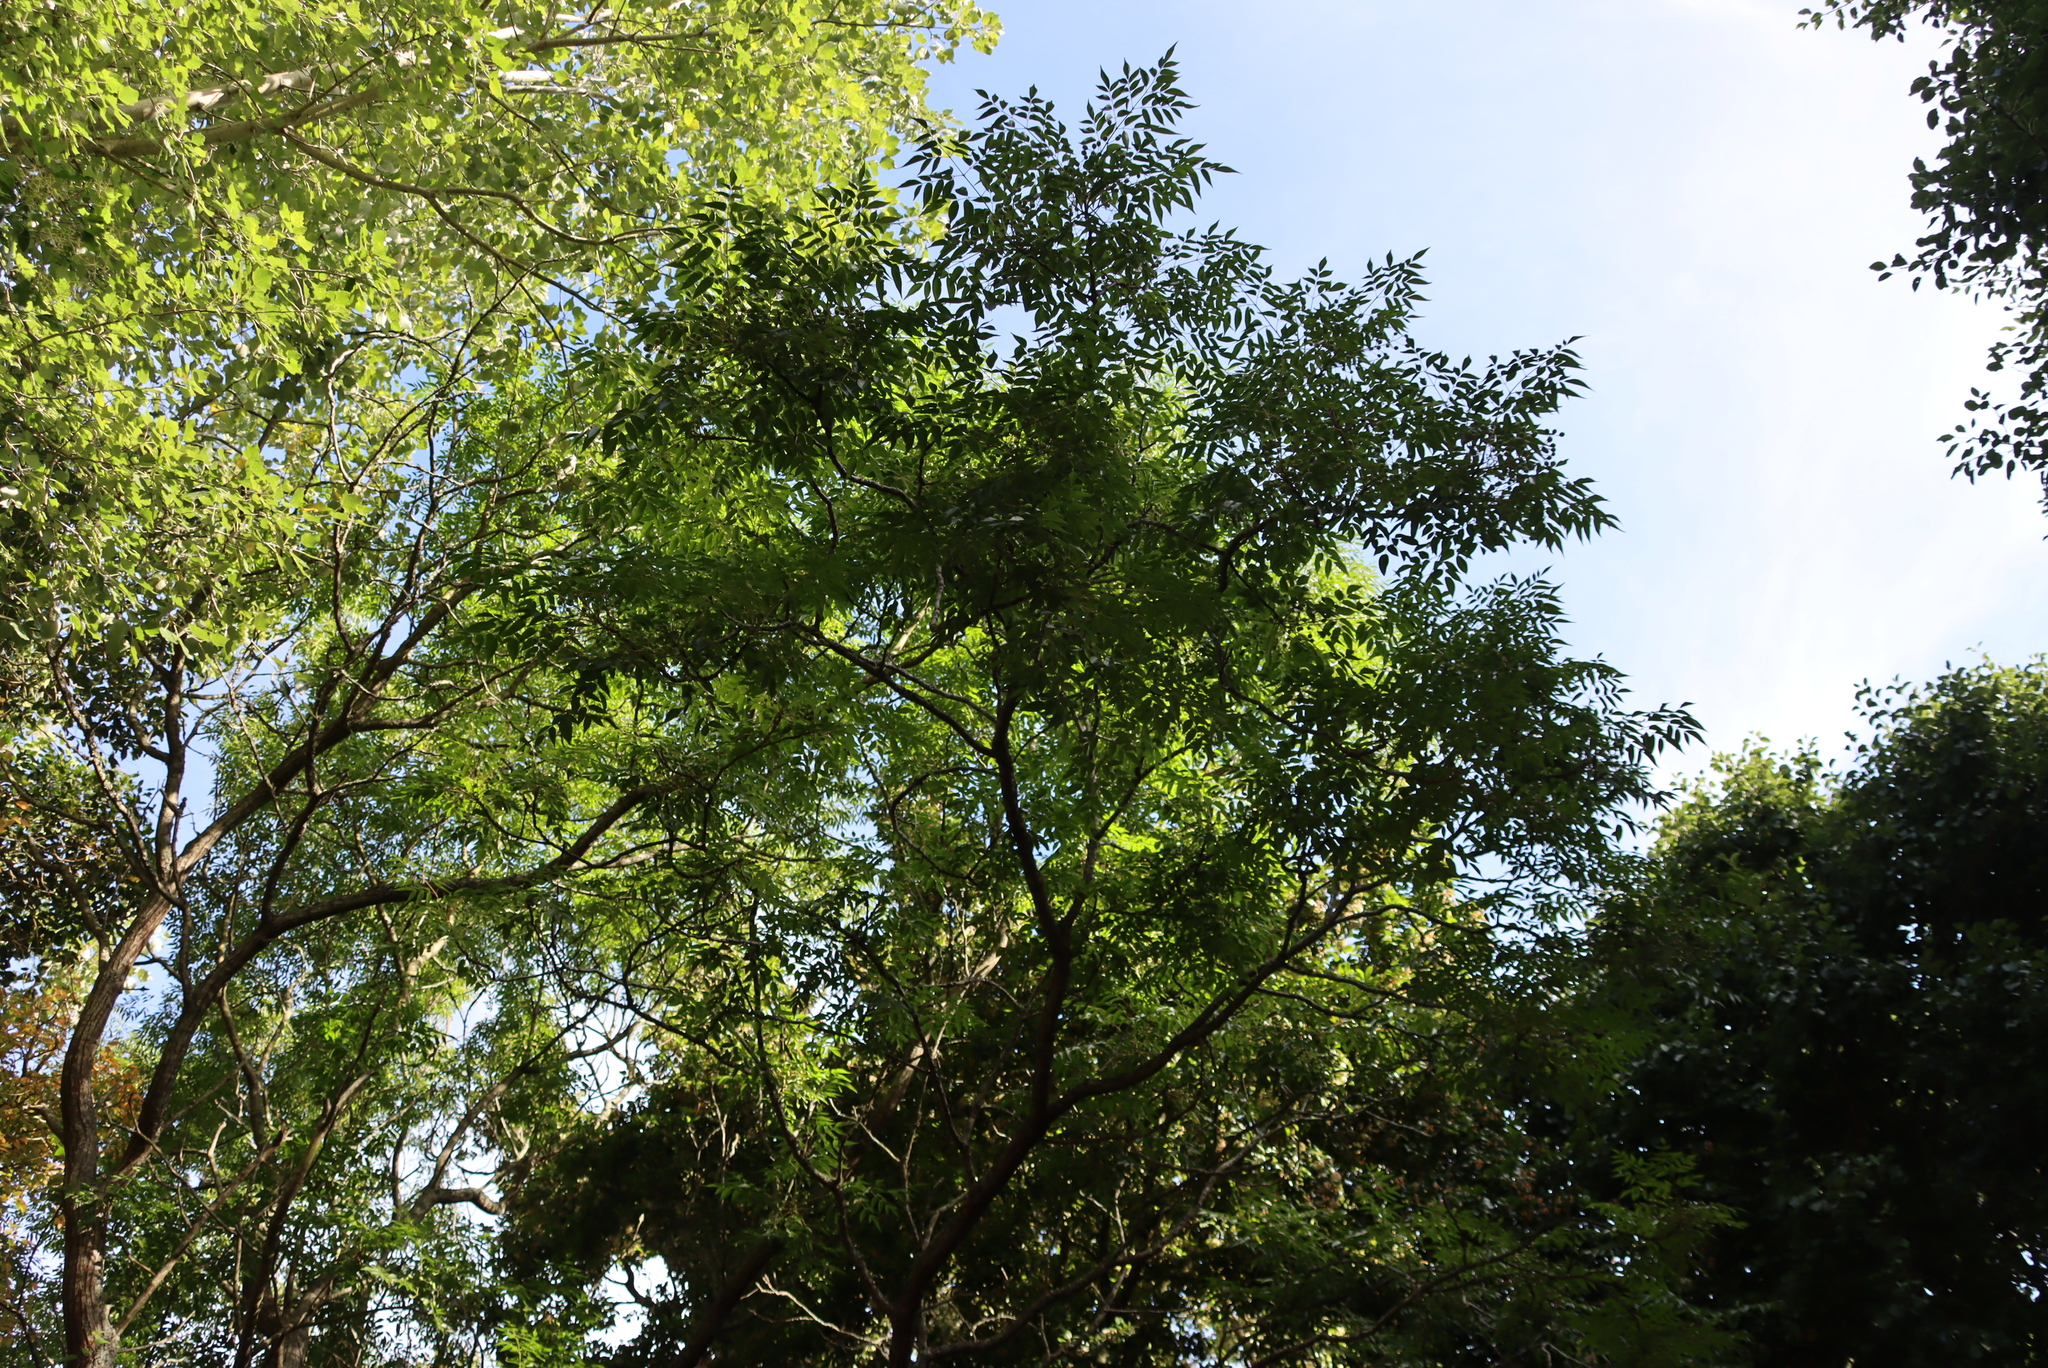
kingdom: Plantae
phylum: Tracheophyta
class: Magnoliopsida
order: Sapindales
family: Meliaceae
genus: Melia
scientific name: Melia azedarach
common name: Chinaberrytree
